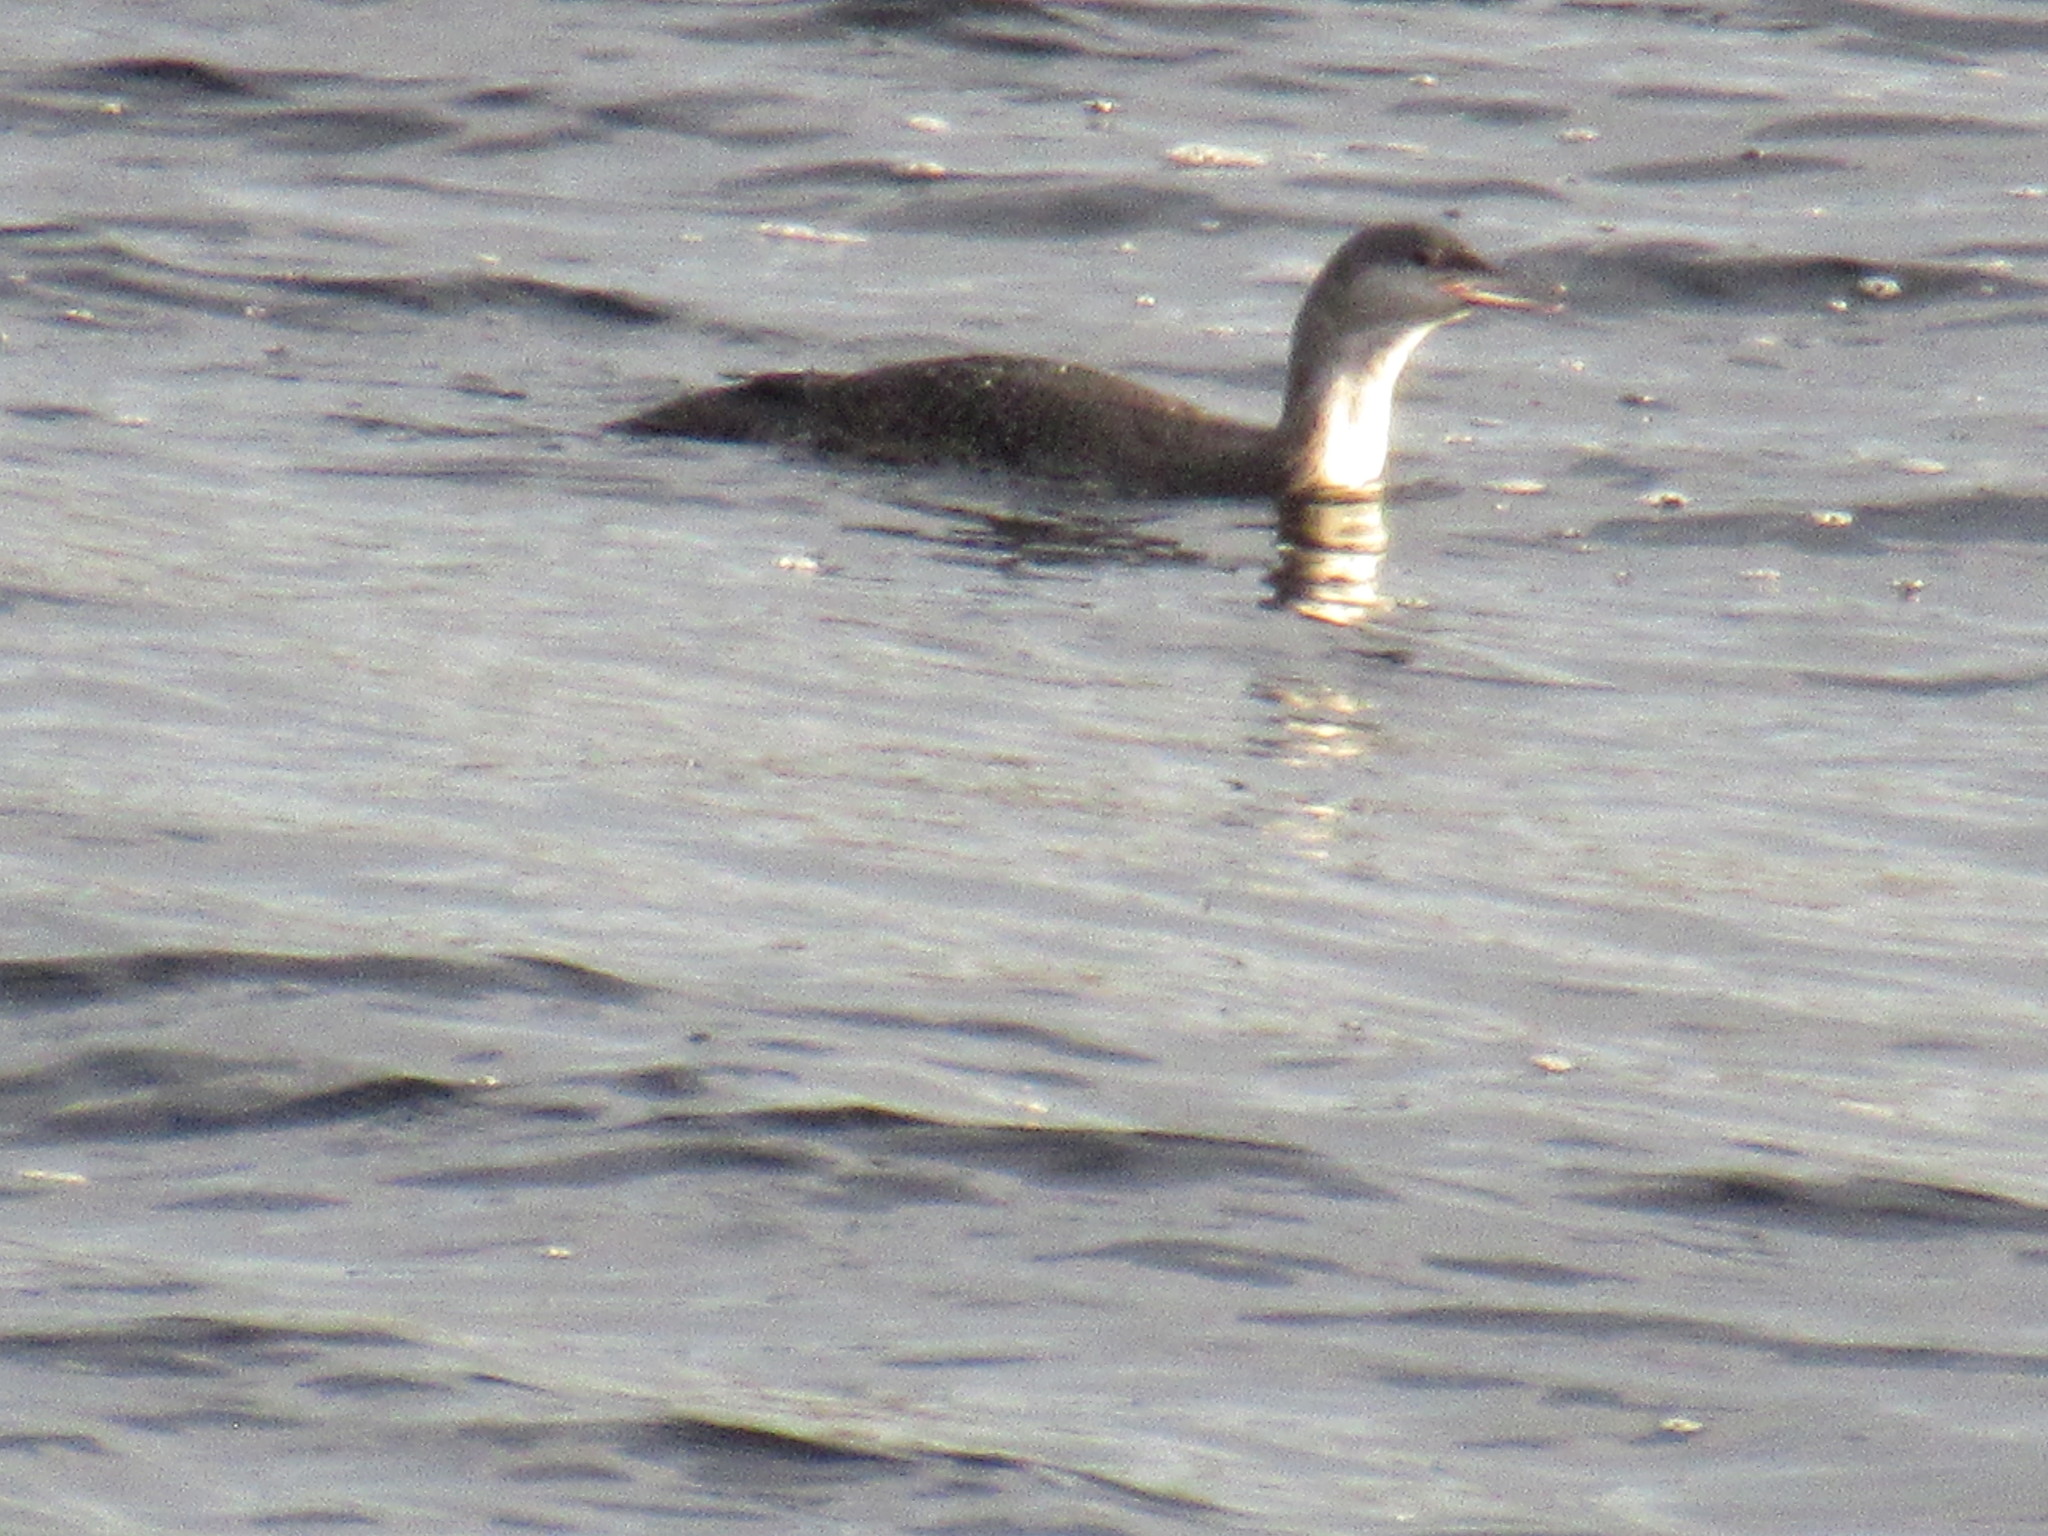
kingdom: Animalia
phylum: Chordata
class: Aves
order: Gaviiformes
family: Gaviidae
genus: Gavia
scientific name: Gavia stellata
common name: Red-throated loon
